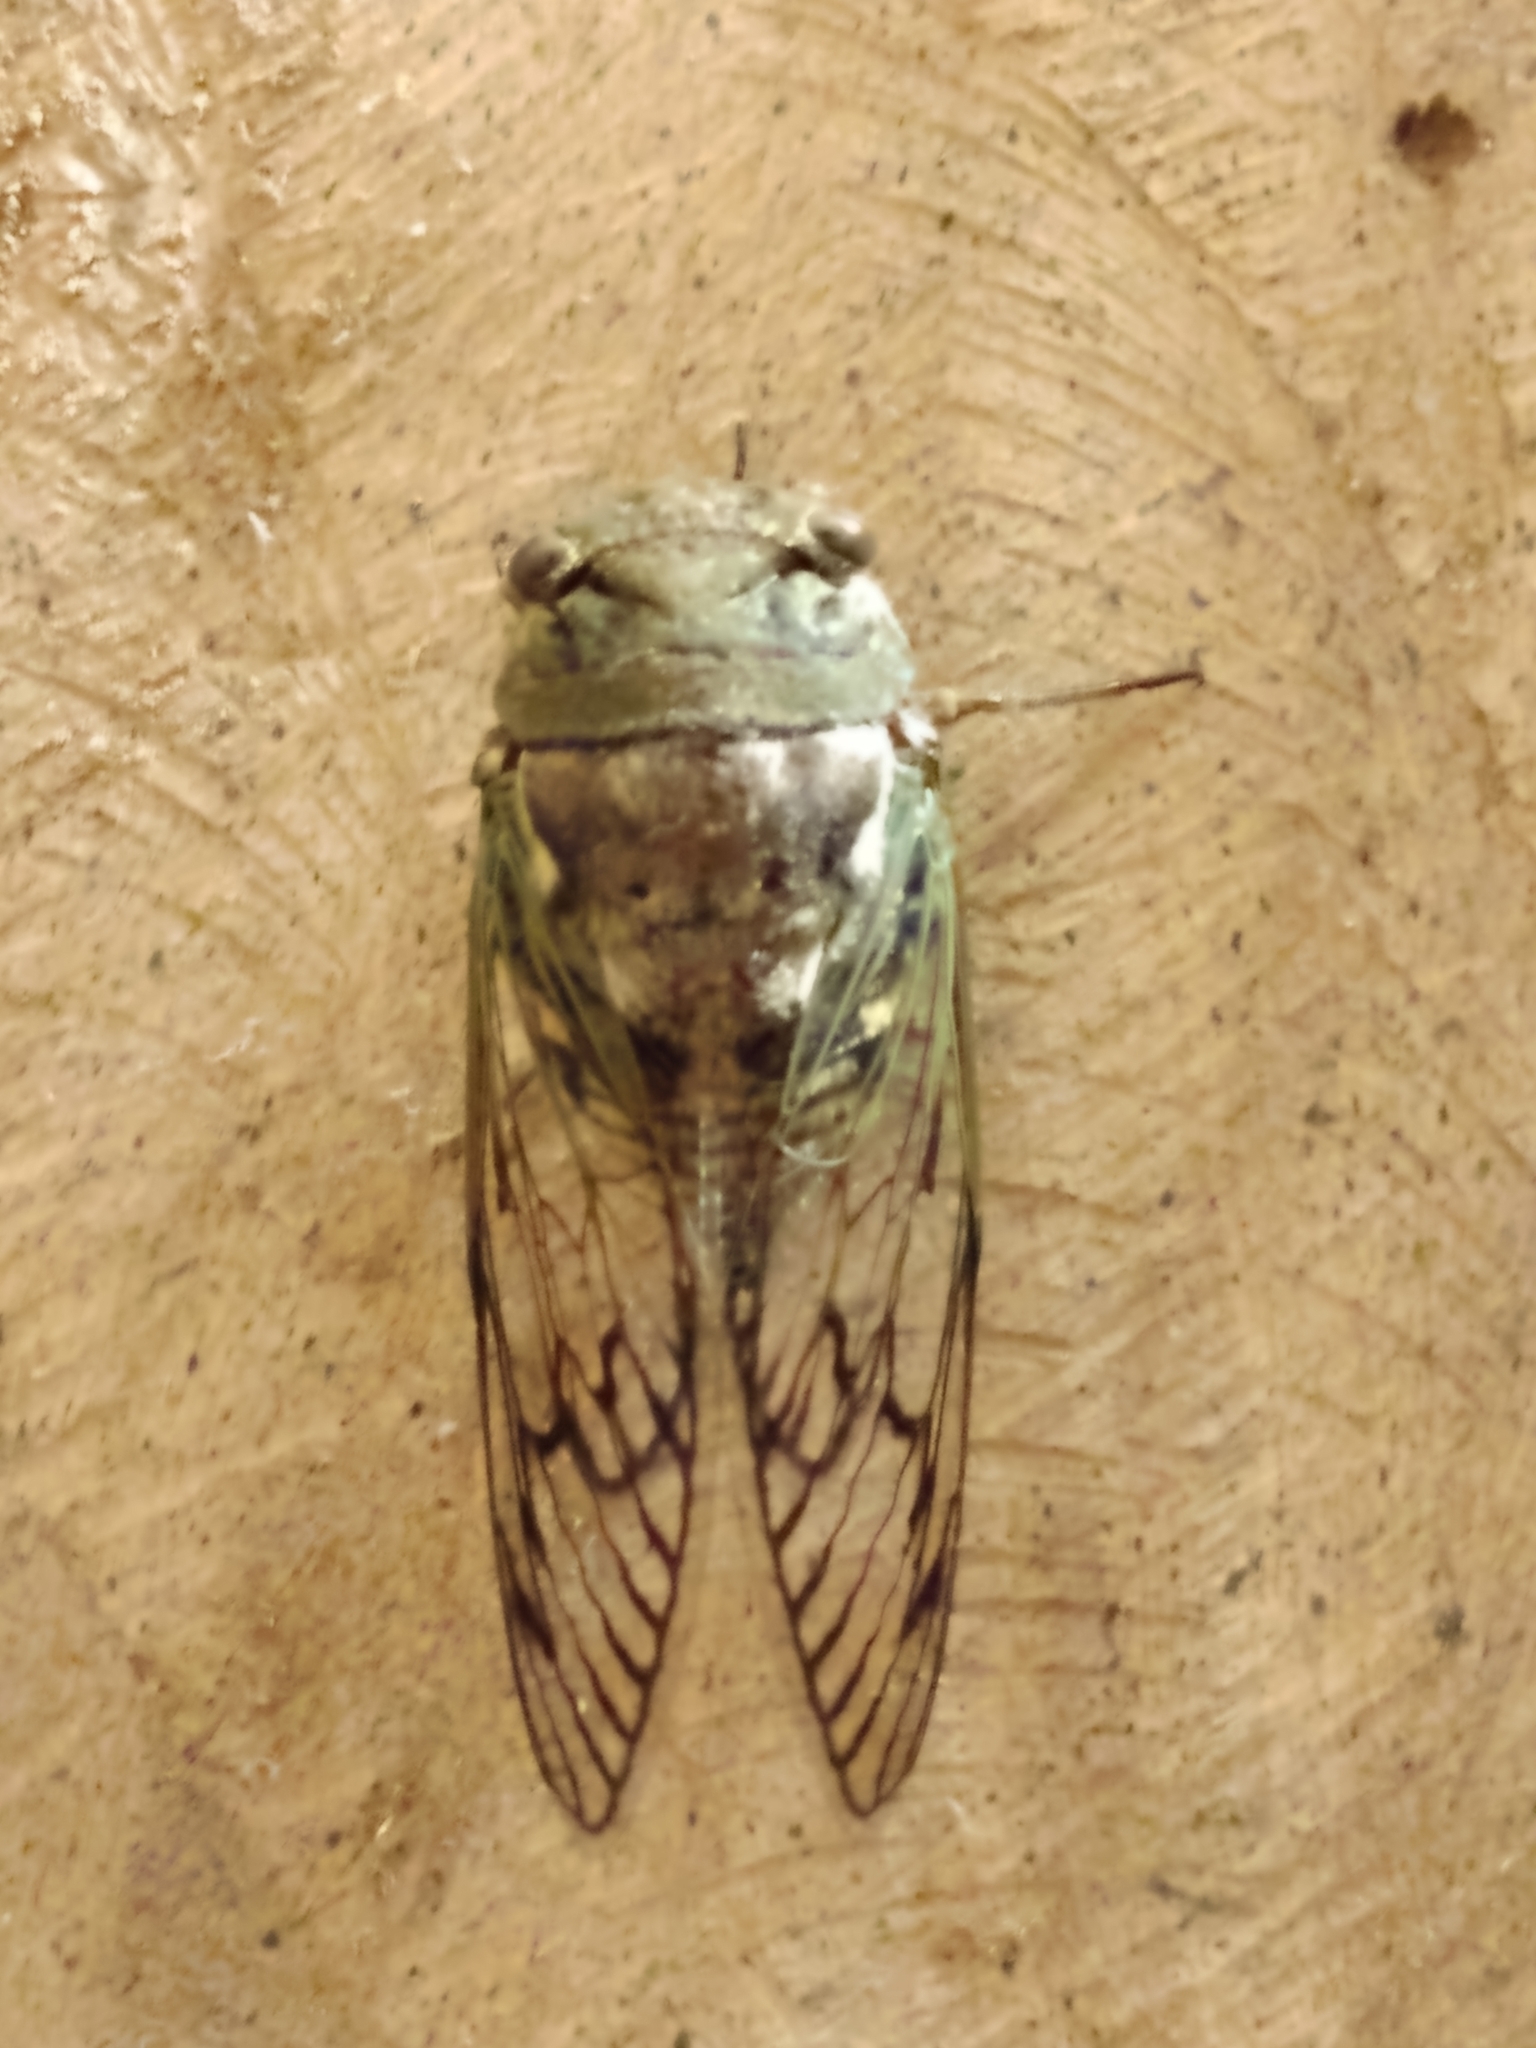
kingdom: Animalia
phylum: Arthropoda
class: Insecta
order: Hemiptera
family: Cicadidae
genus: Fidicina
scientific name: Fidicina torresi
